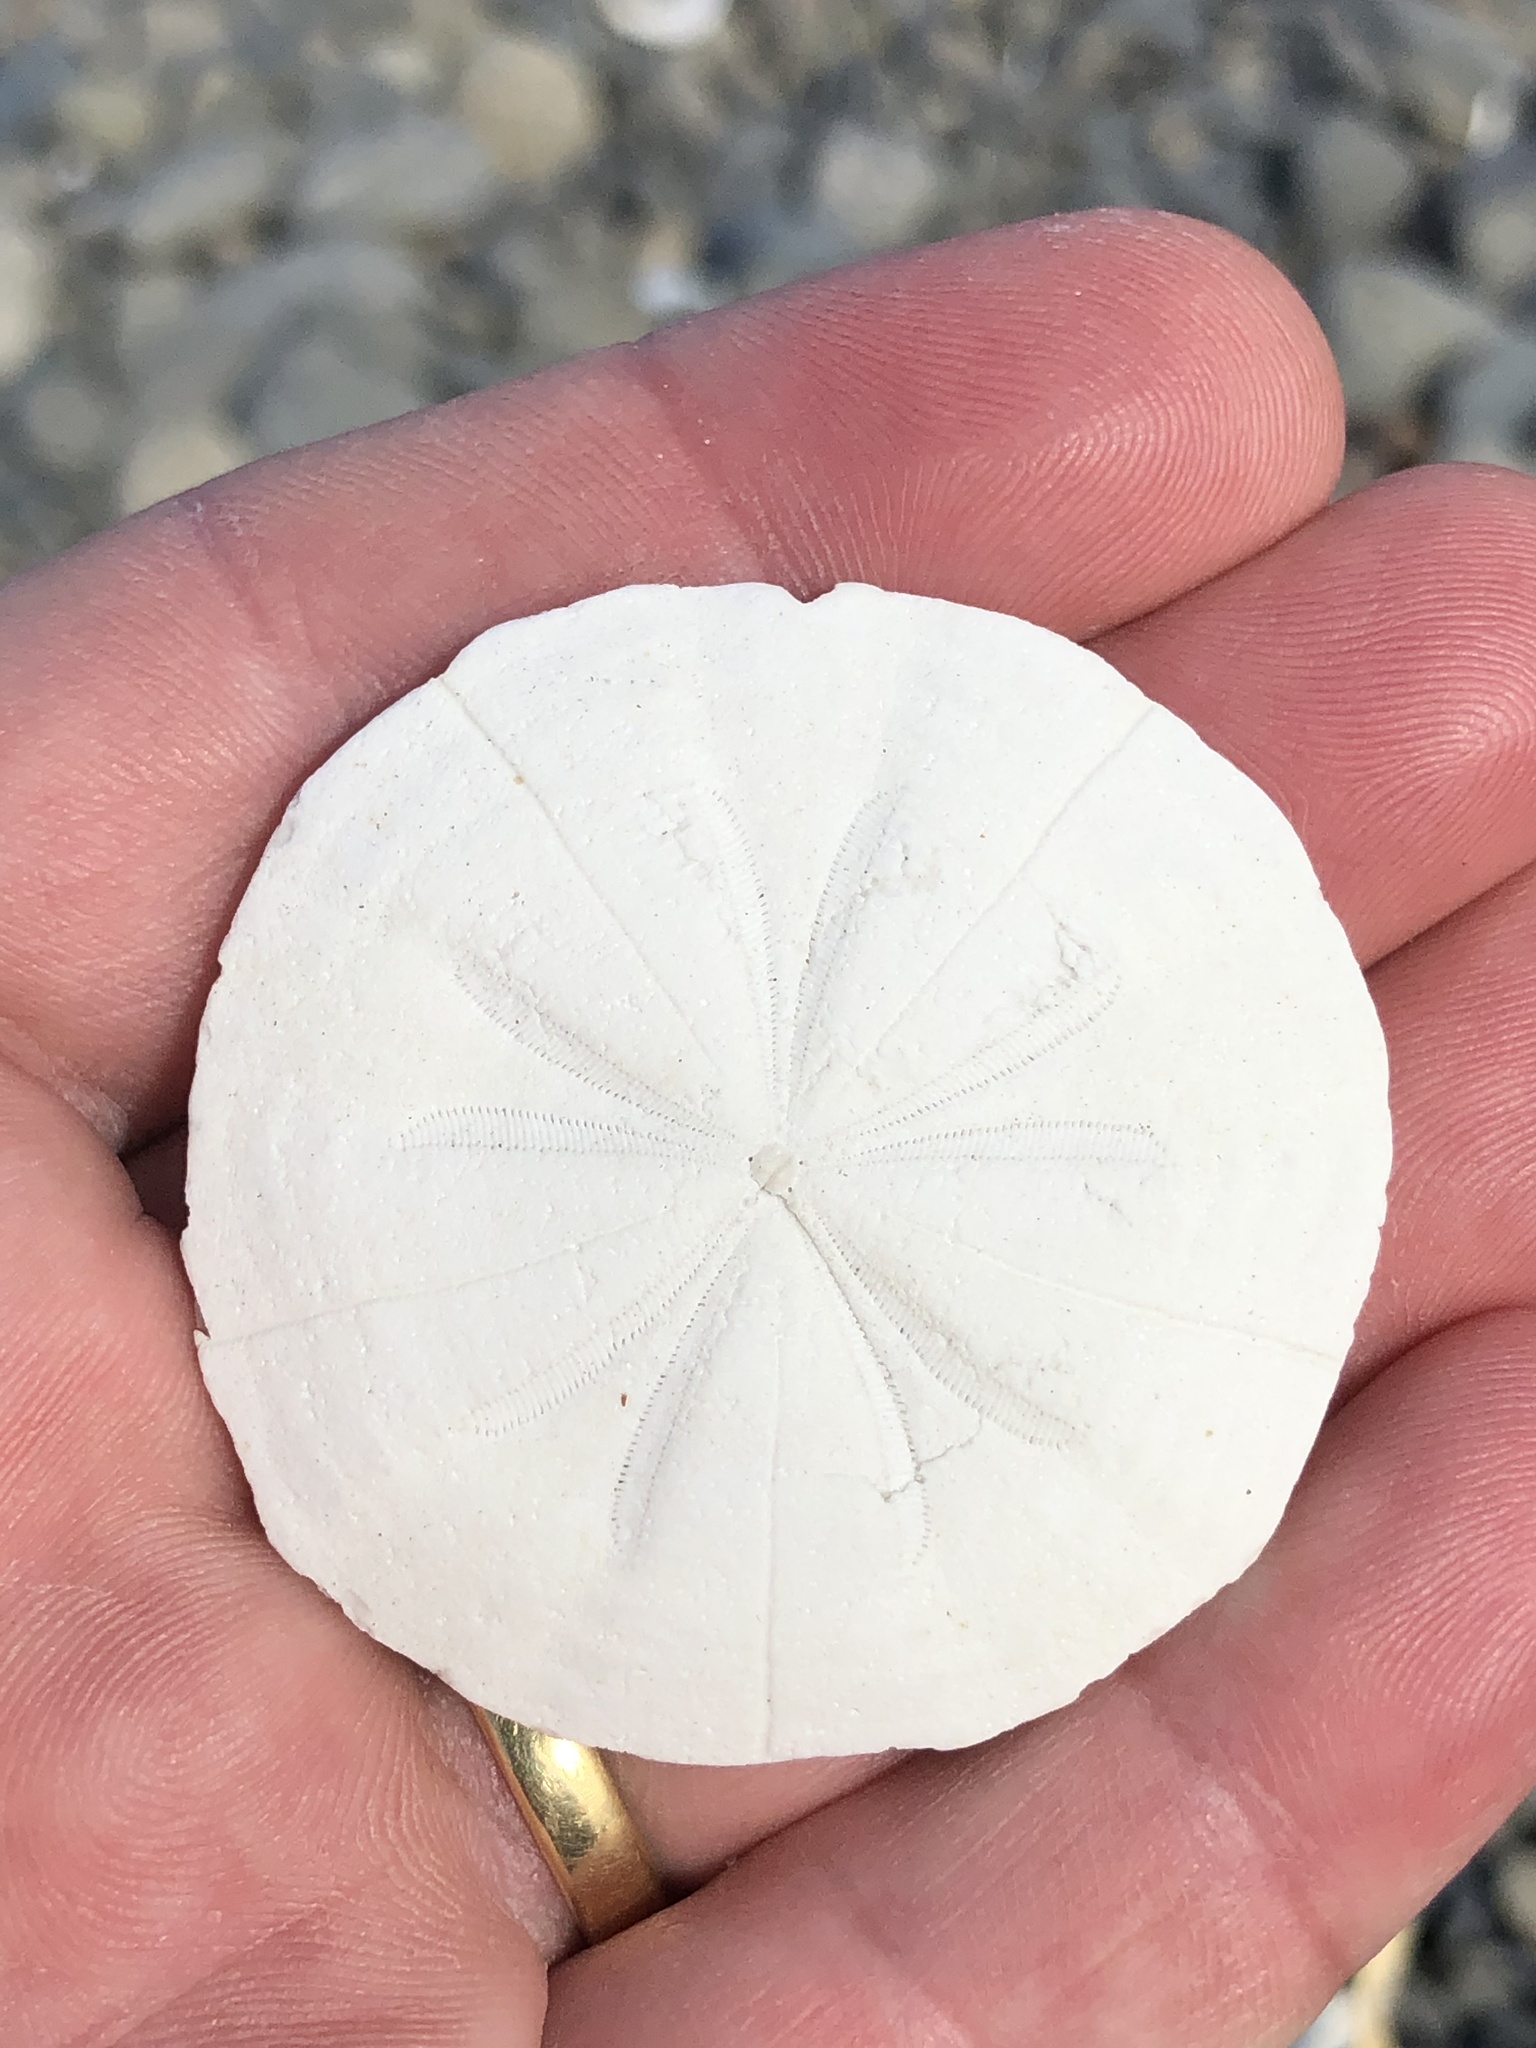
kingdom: Animalia
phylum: Echinodermata
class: Echinoidea
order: Clypeasteroida
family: Clypeasteridae
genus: Fellaster
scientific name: Fellaster zelandiae
